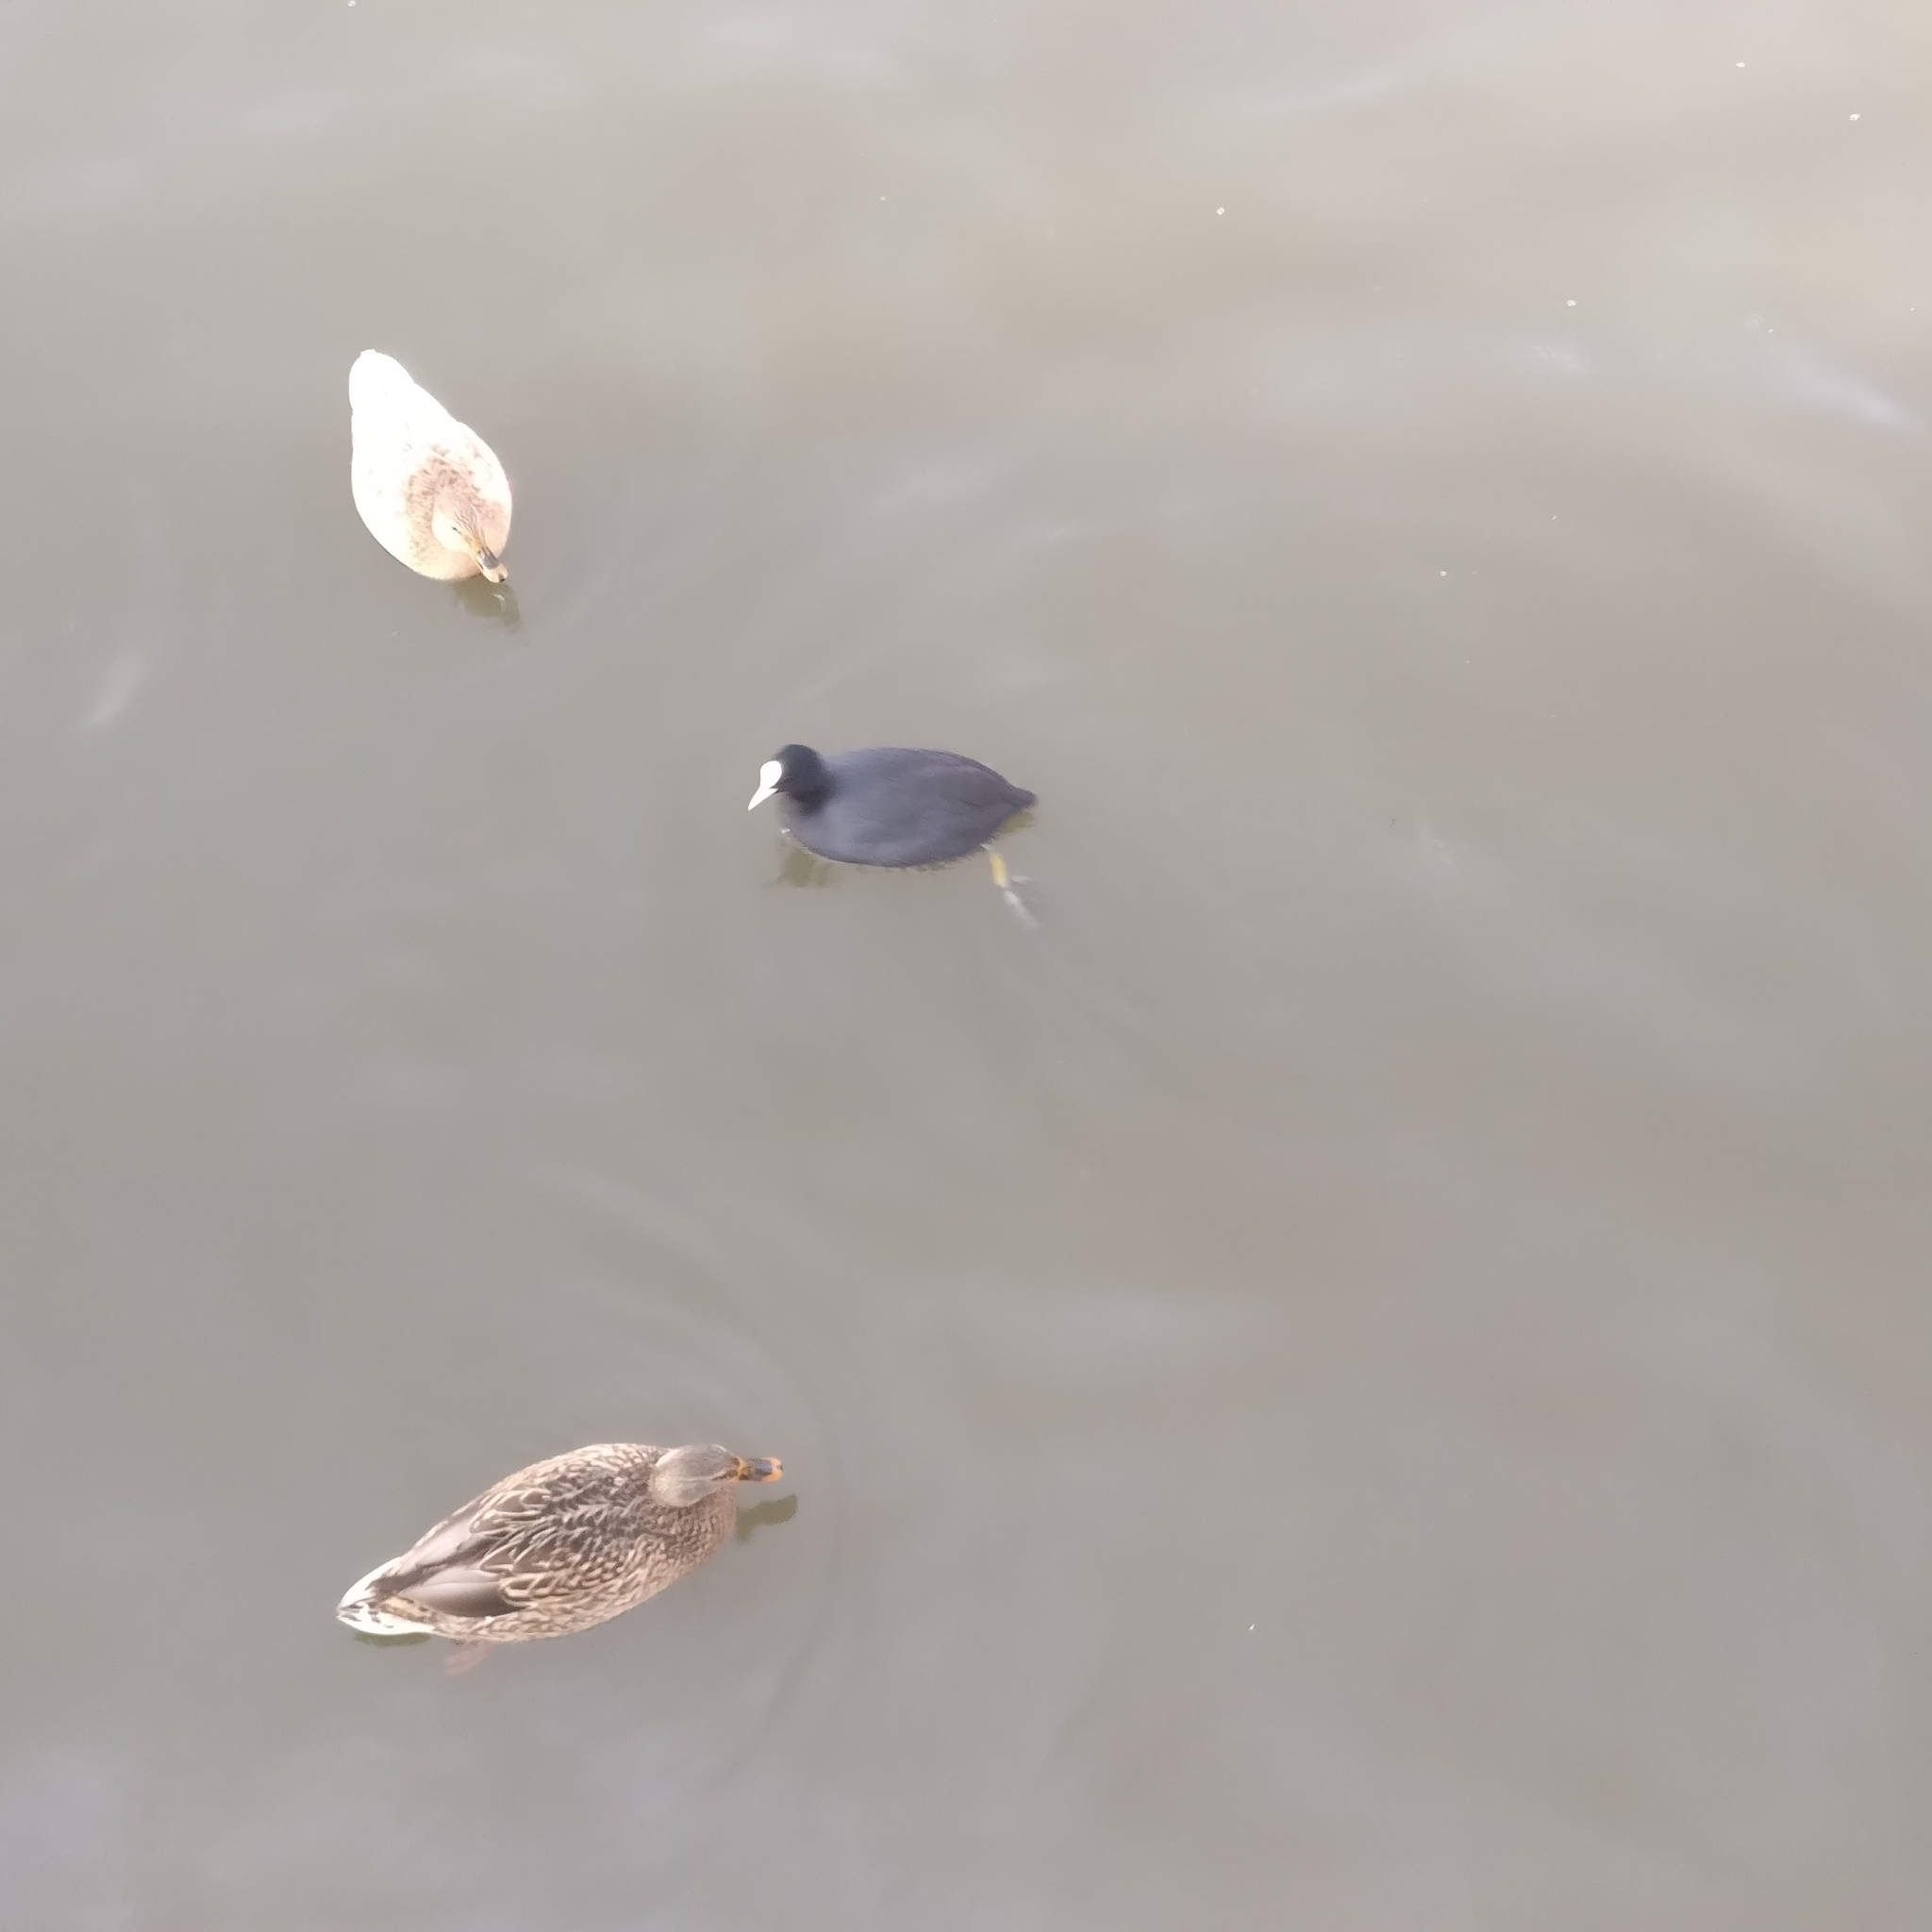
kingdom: Animalia
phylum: Chordata
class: Aves
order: Gruiformes
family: Rallidae
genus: Fulica
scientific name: Fulica atra
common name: Eurasian coot
